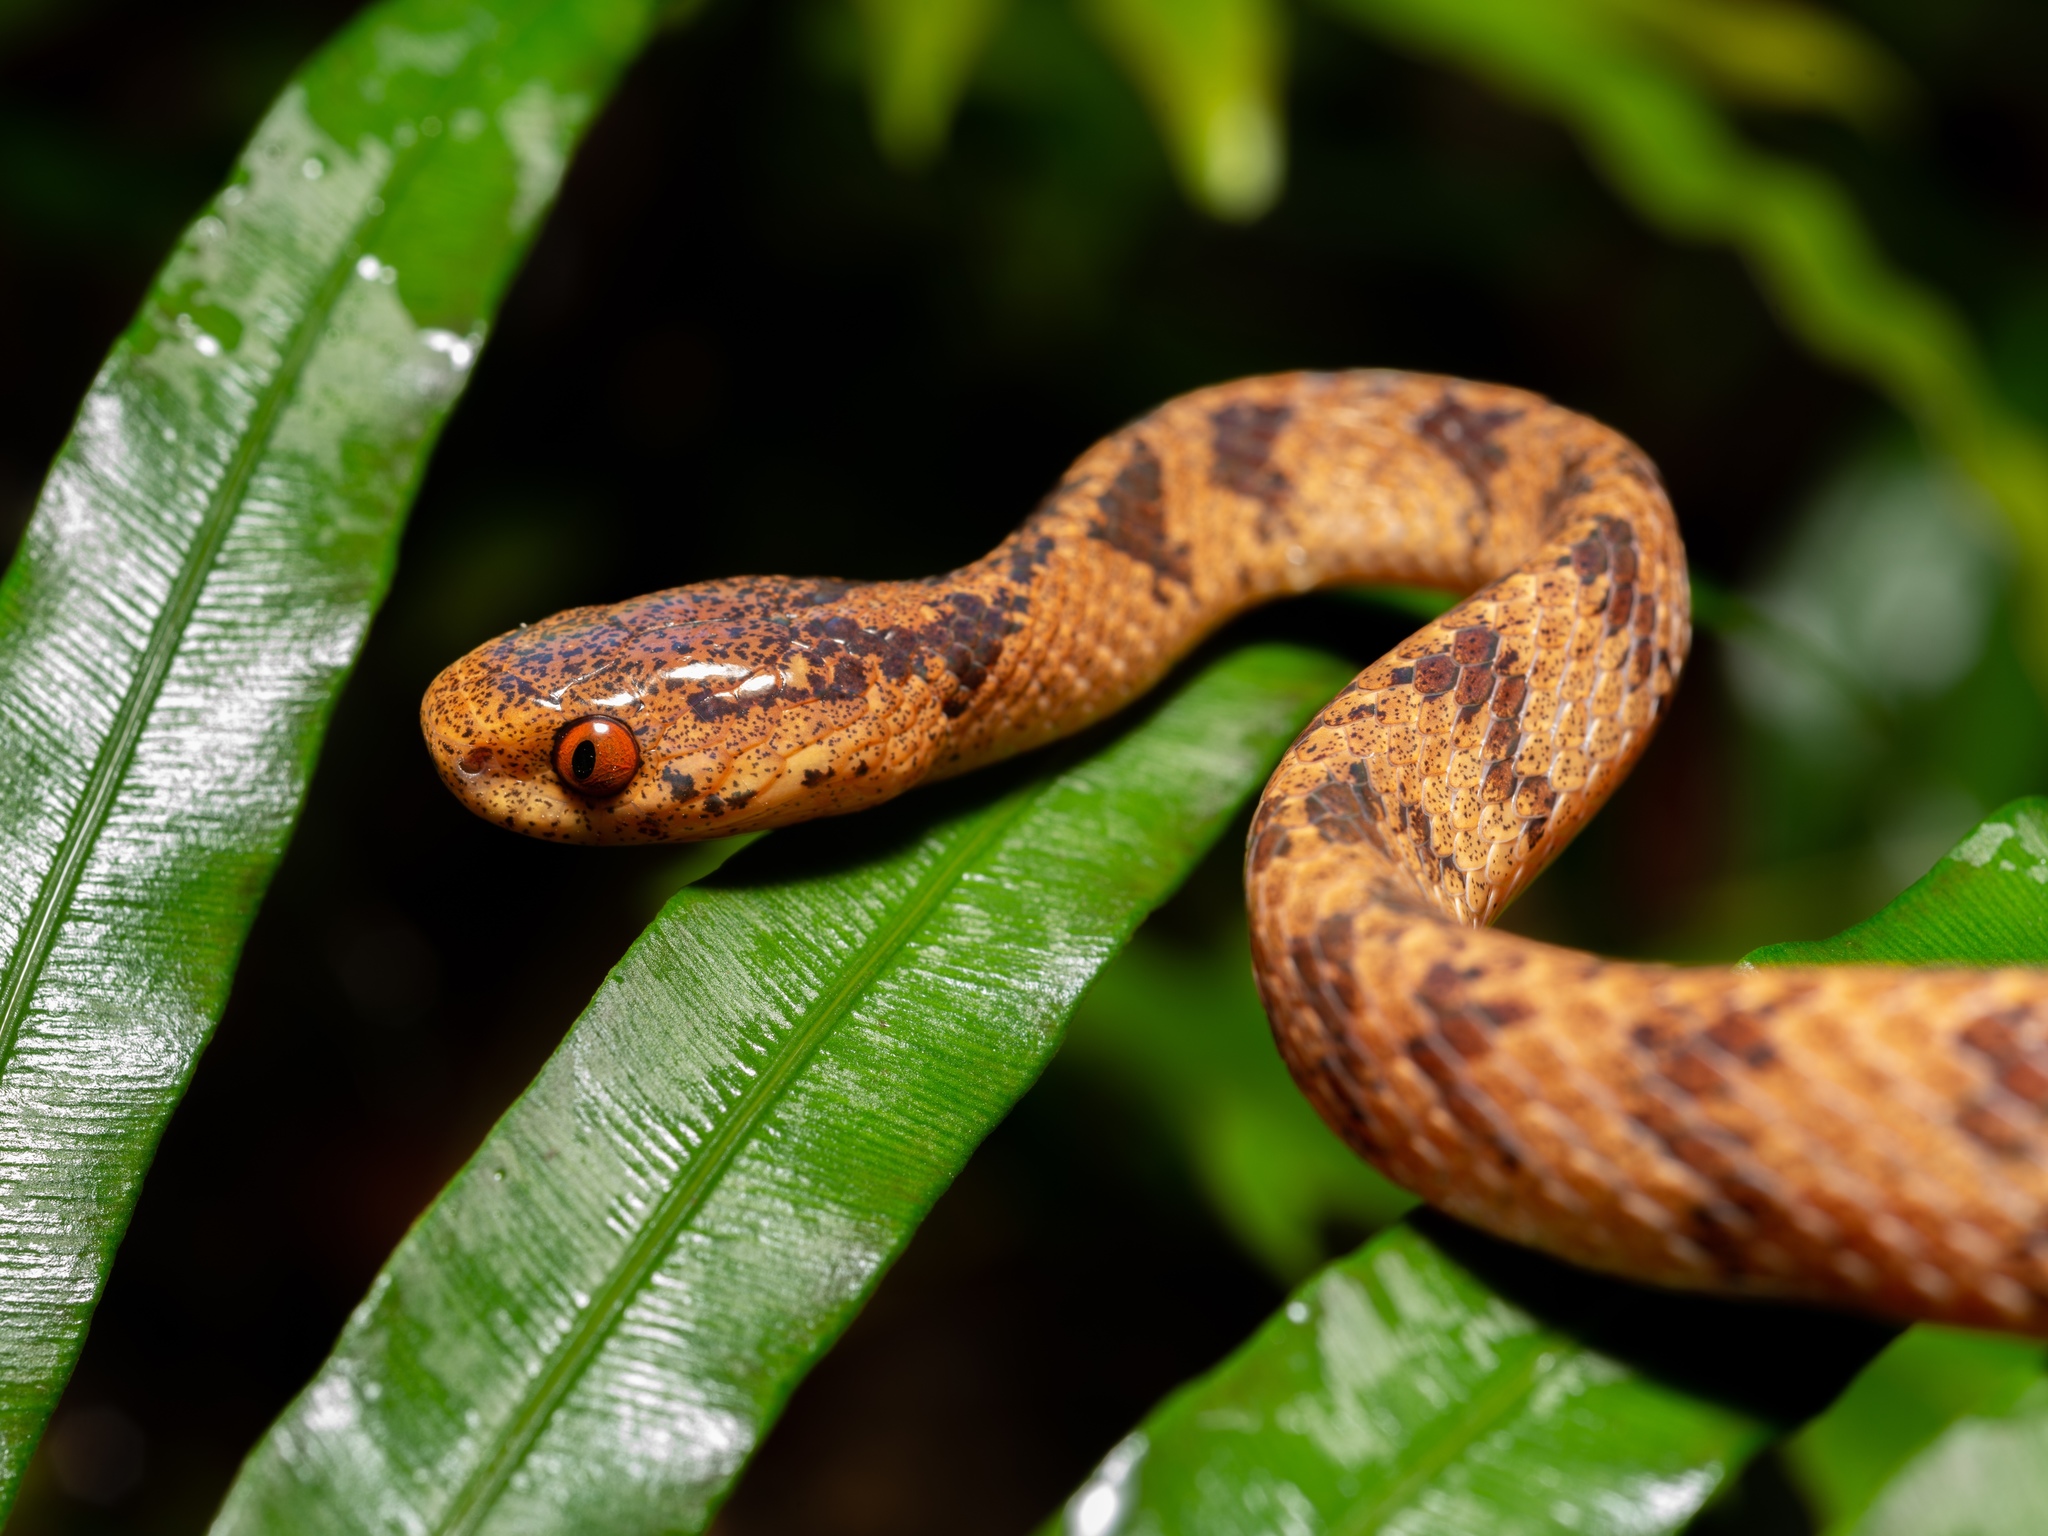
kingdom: Animalia
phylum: Chordata
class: Squamata
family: Pareidae
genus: Pareas
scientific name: Pareas chinensis
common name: Chinese slug snake
